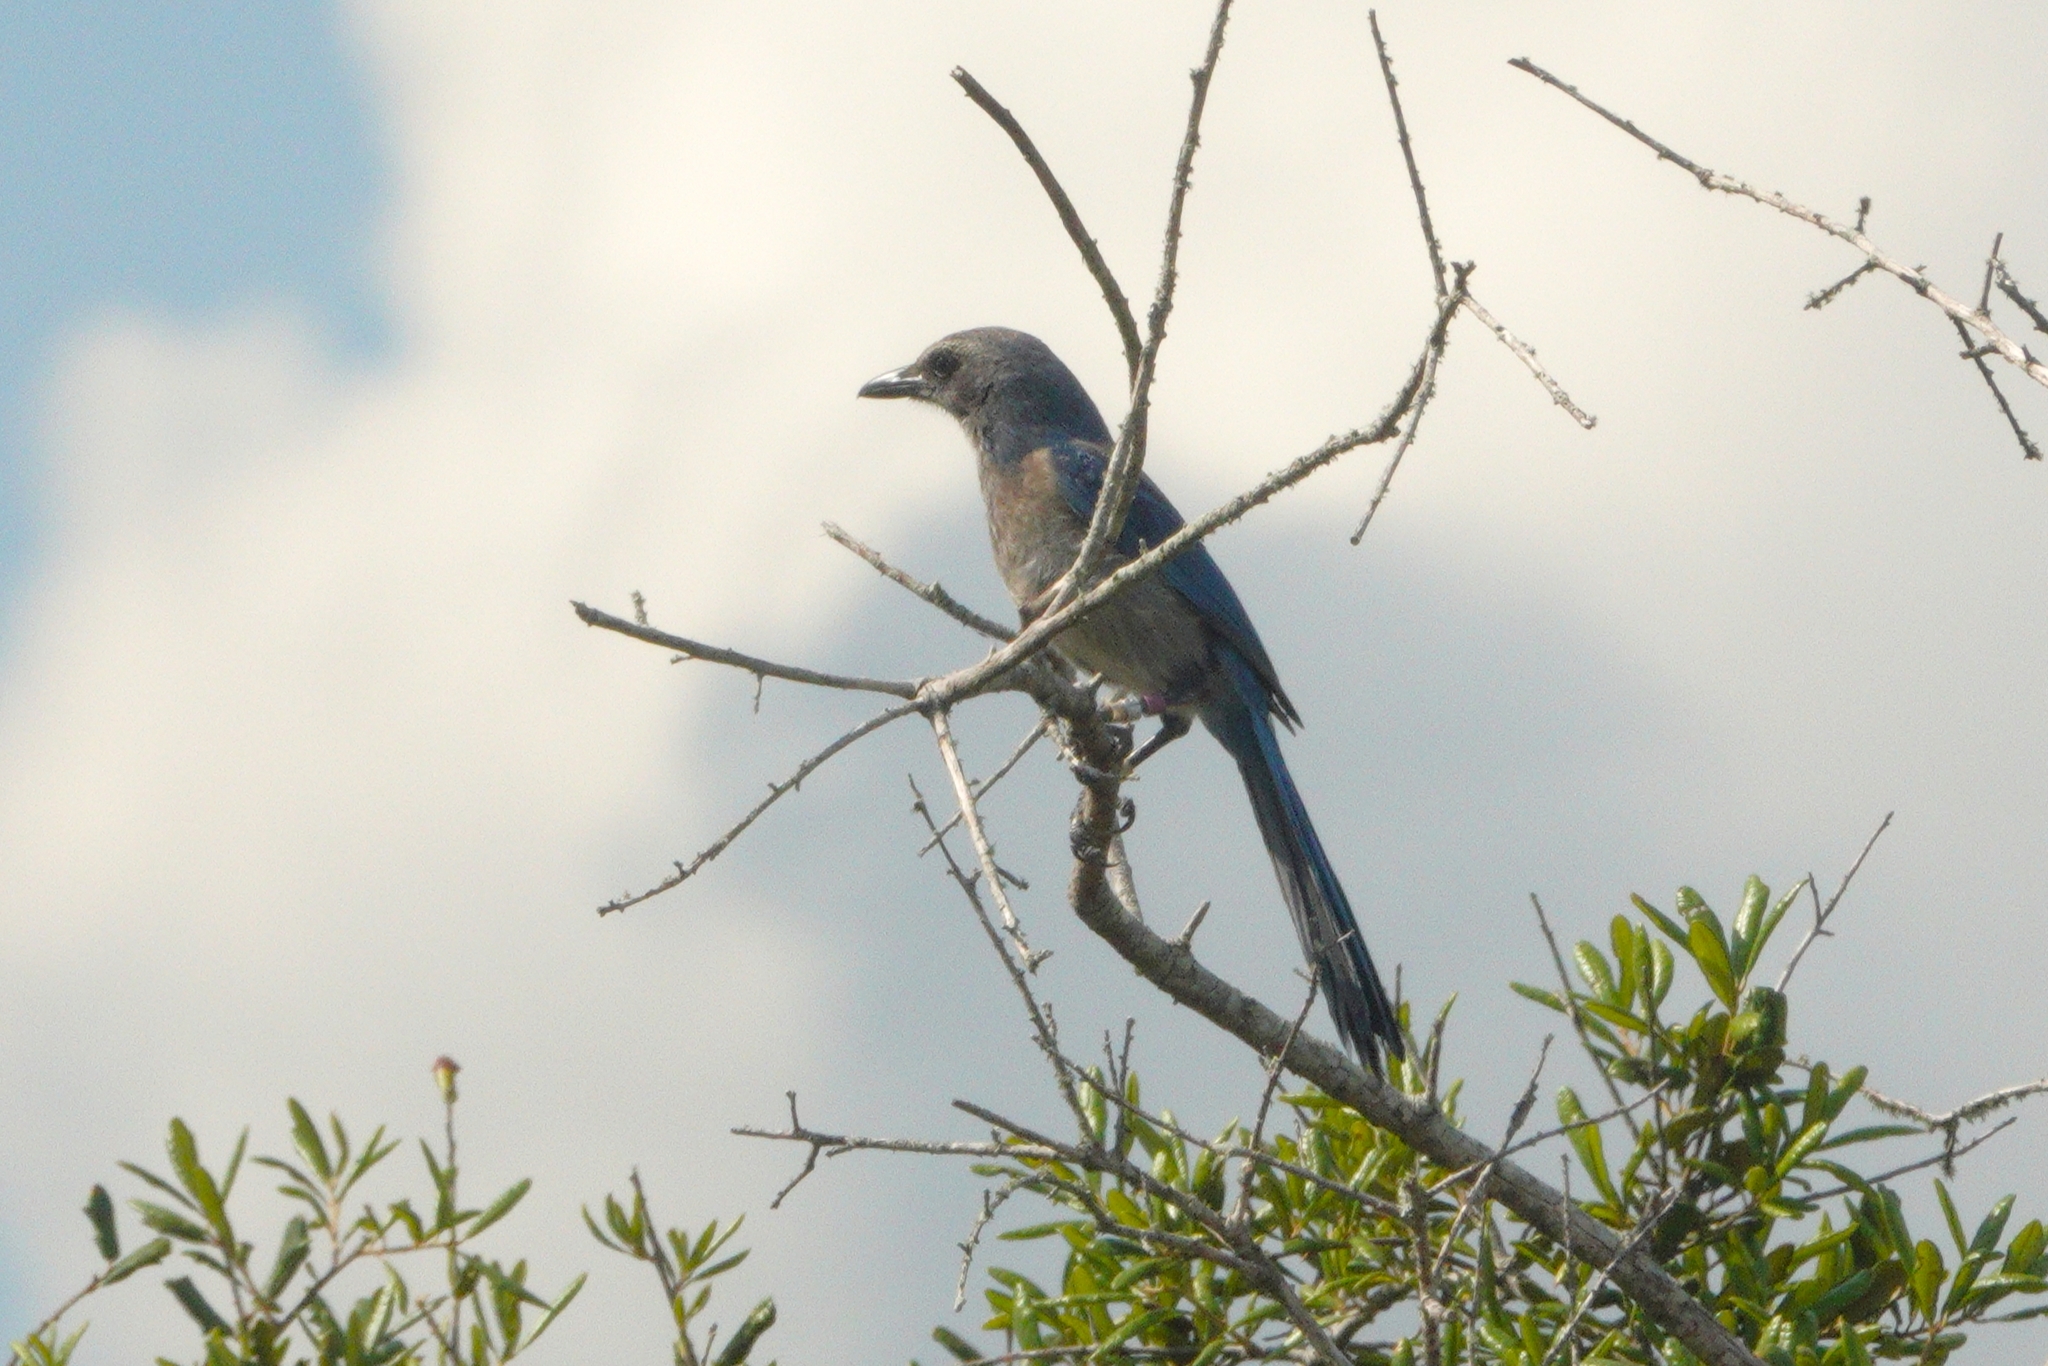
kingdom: Animalia
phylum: Chordata
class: Aves
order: Passeriformes
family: Corvidae
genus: Aphelocoma
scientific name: Aphelocoma coerulescens
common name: Florida scrub jay
